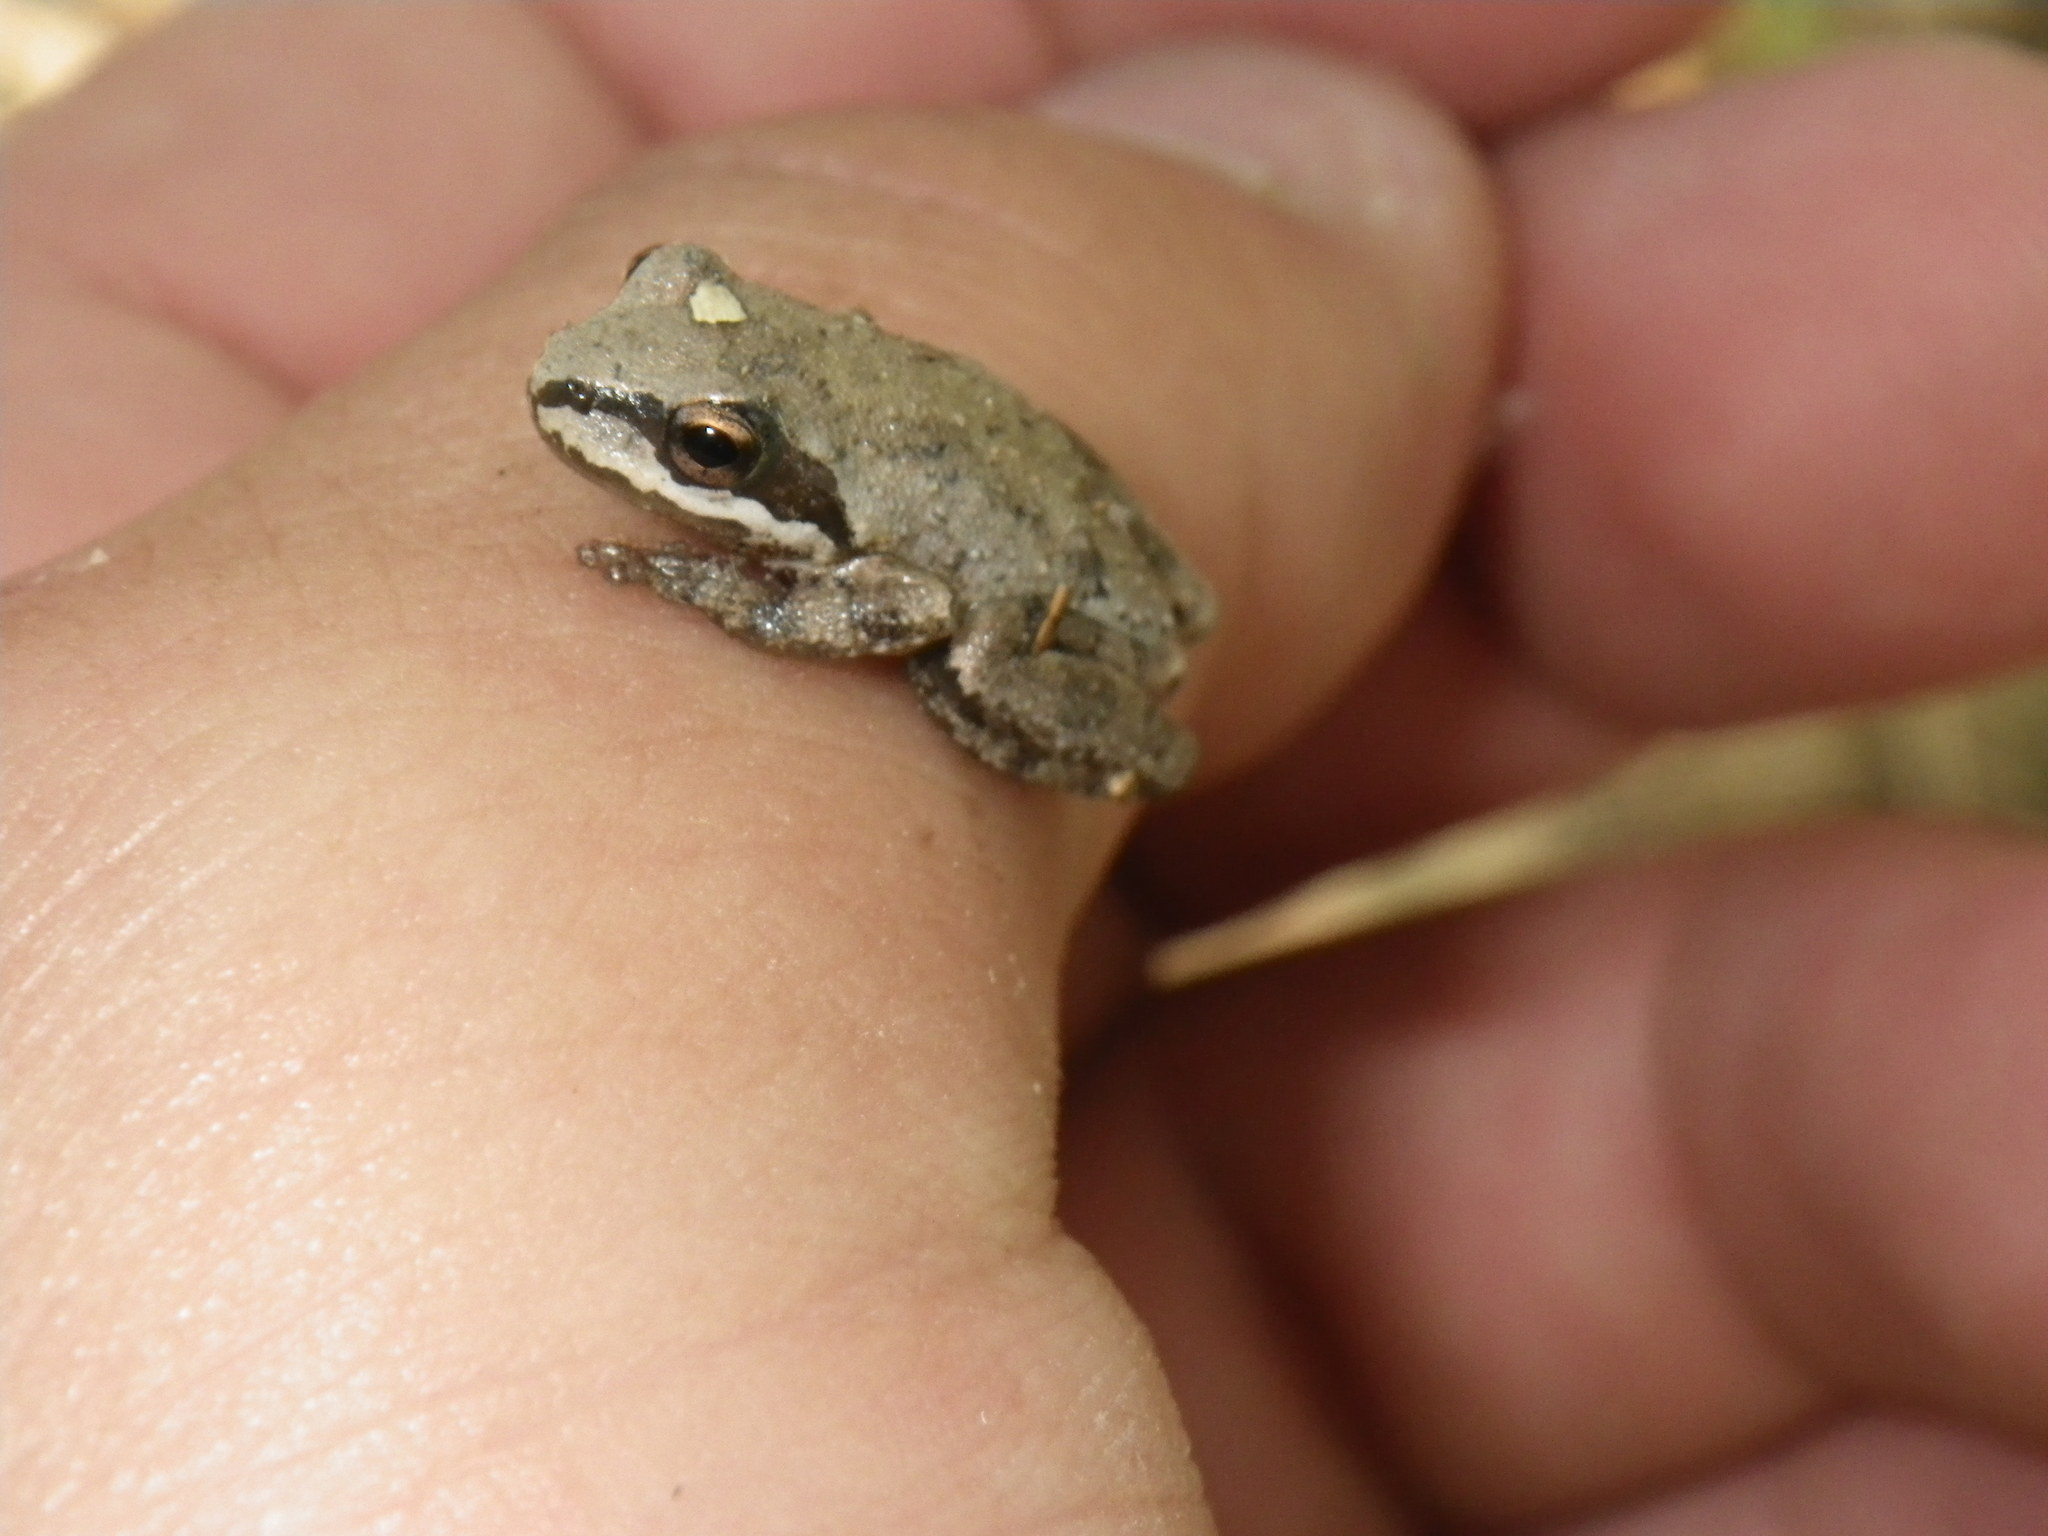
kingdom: Animalia
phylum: Chordata
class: Amphibia
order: Anura
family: Hylidae
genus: Pseudacris
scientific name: Pseudacris regilla
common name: Pacific chorus frog
